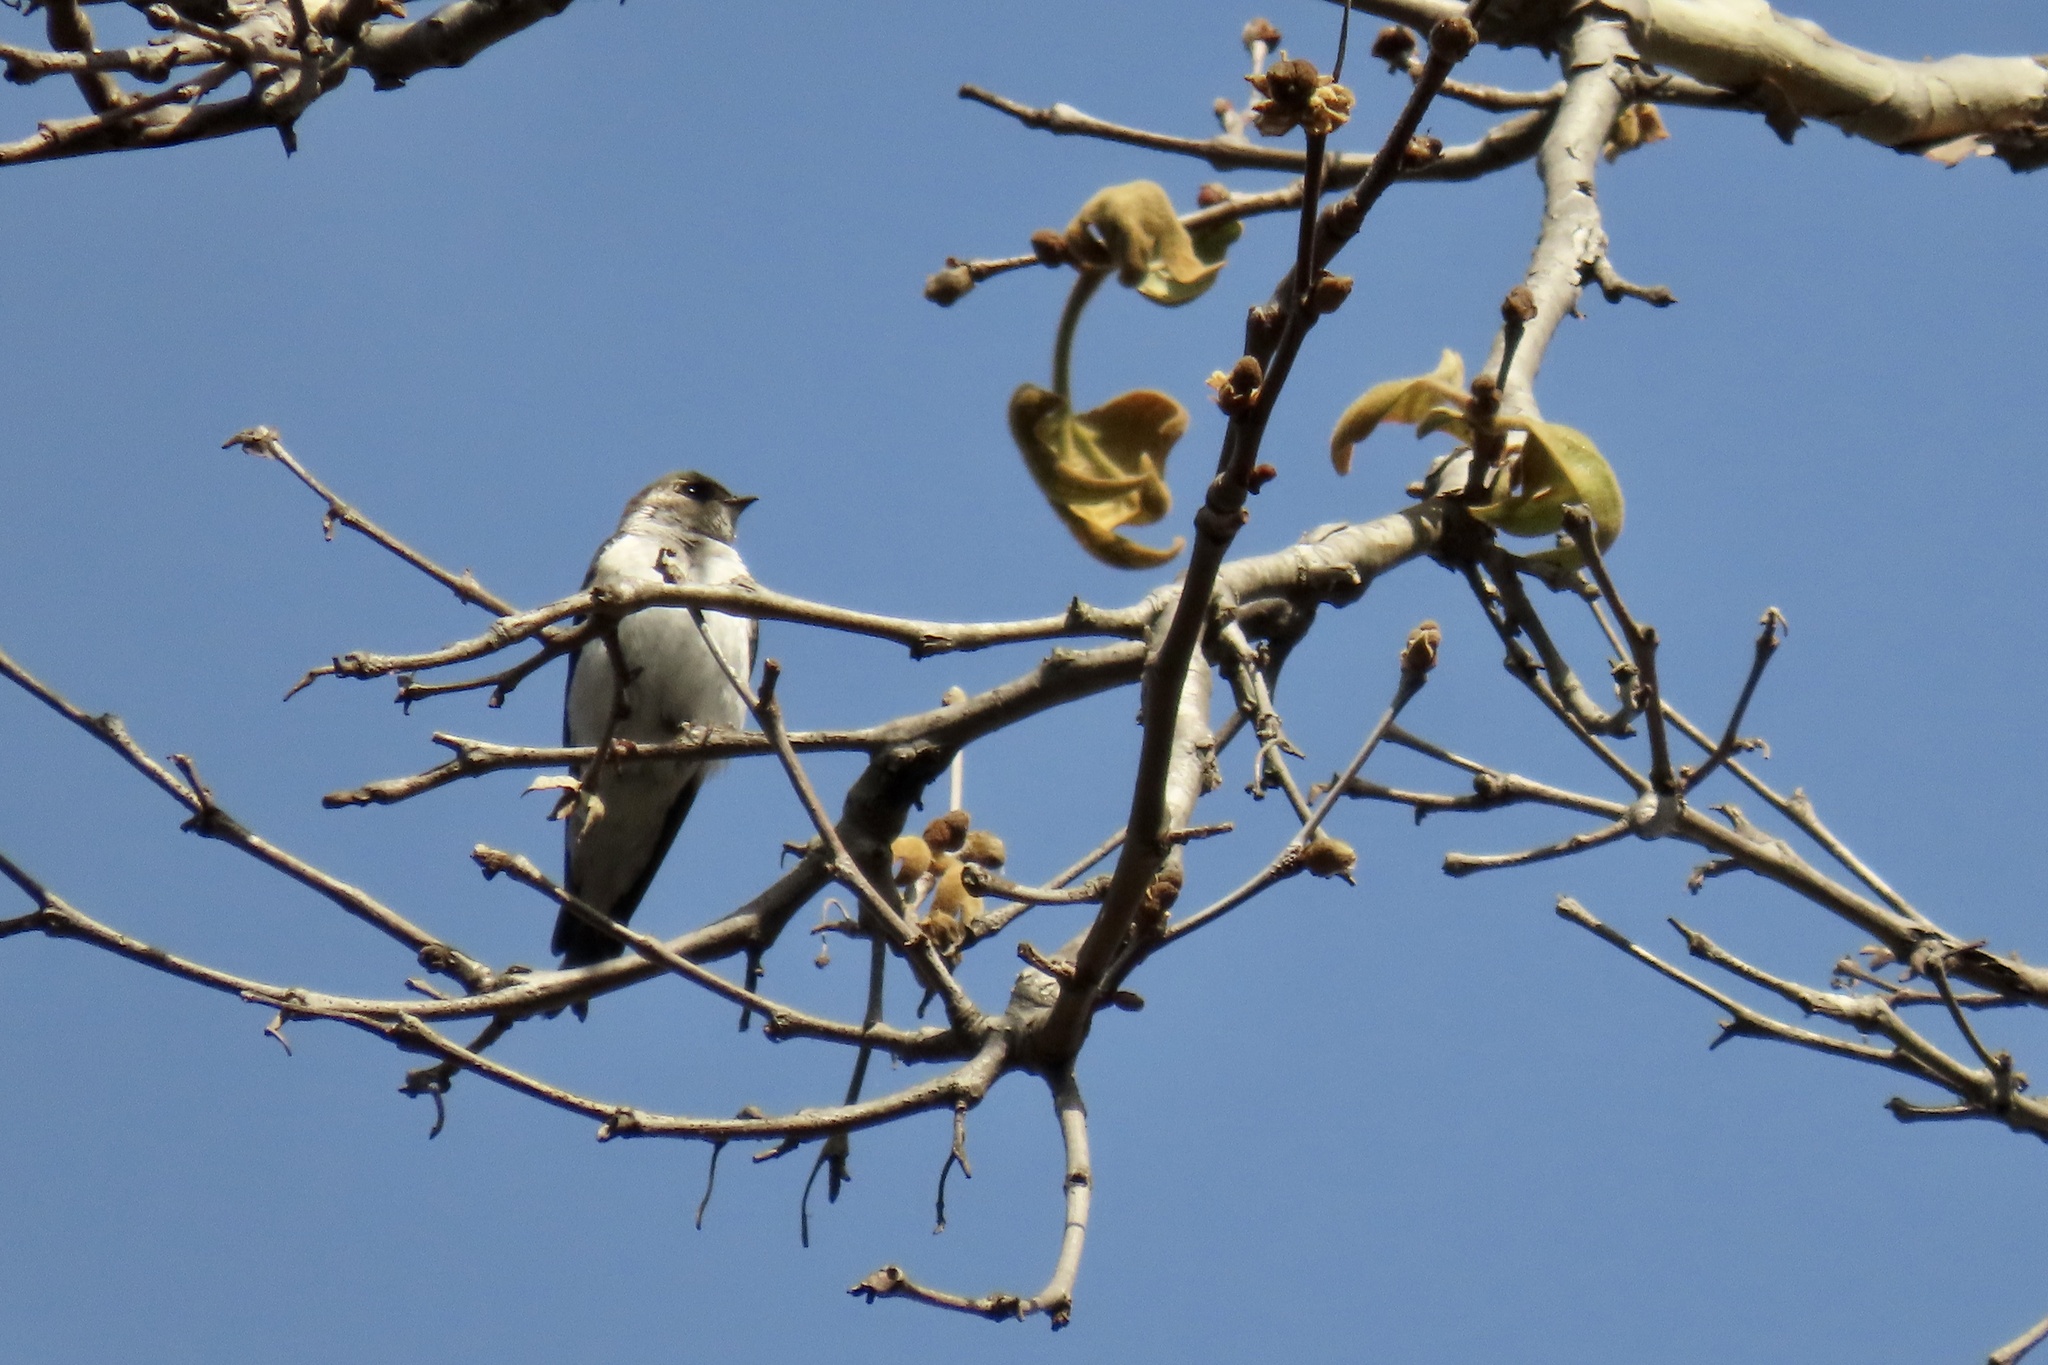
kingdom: Animalia
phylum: Chordata
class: Aves
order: Passeriformes
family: Hirundinidae
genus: Tachycineta
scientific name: Tachycineta thalassina
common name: Violet-green swallow
